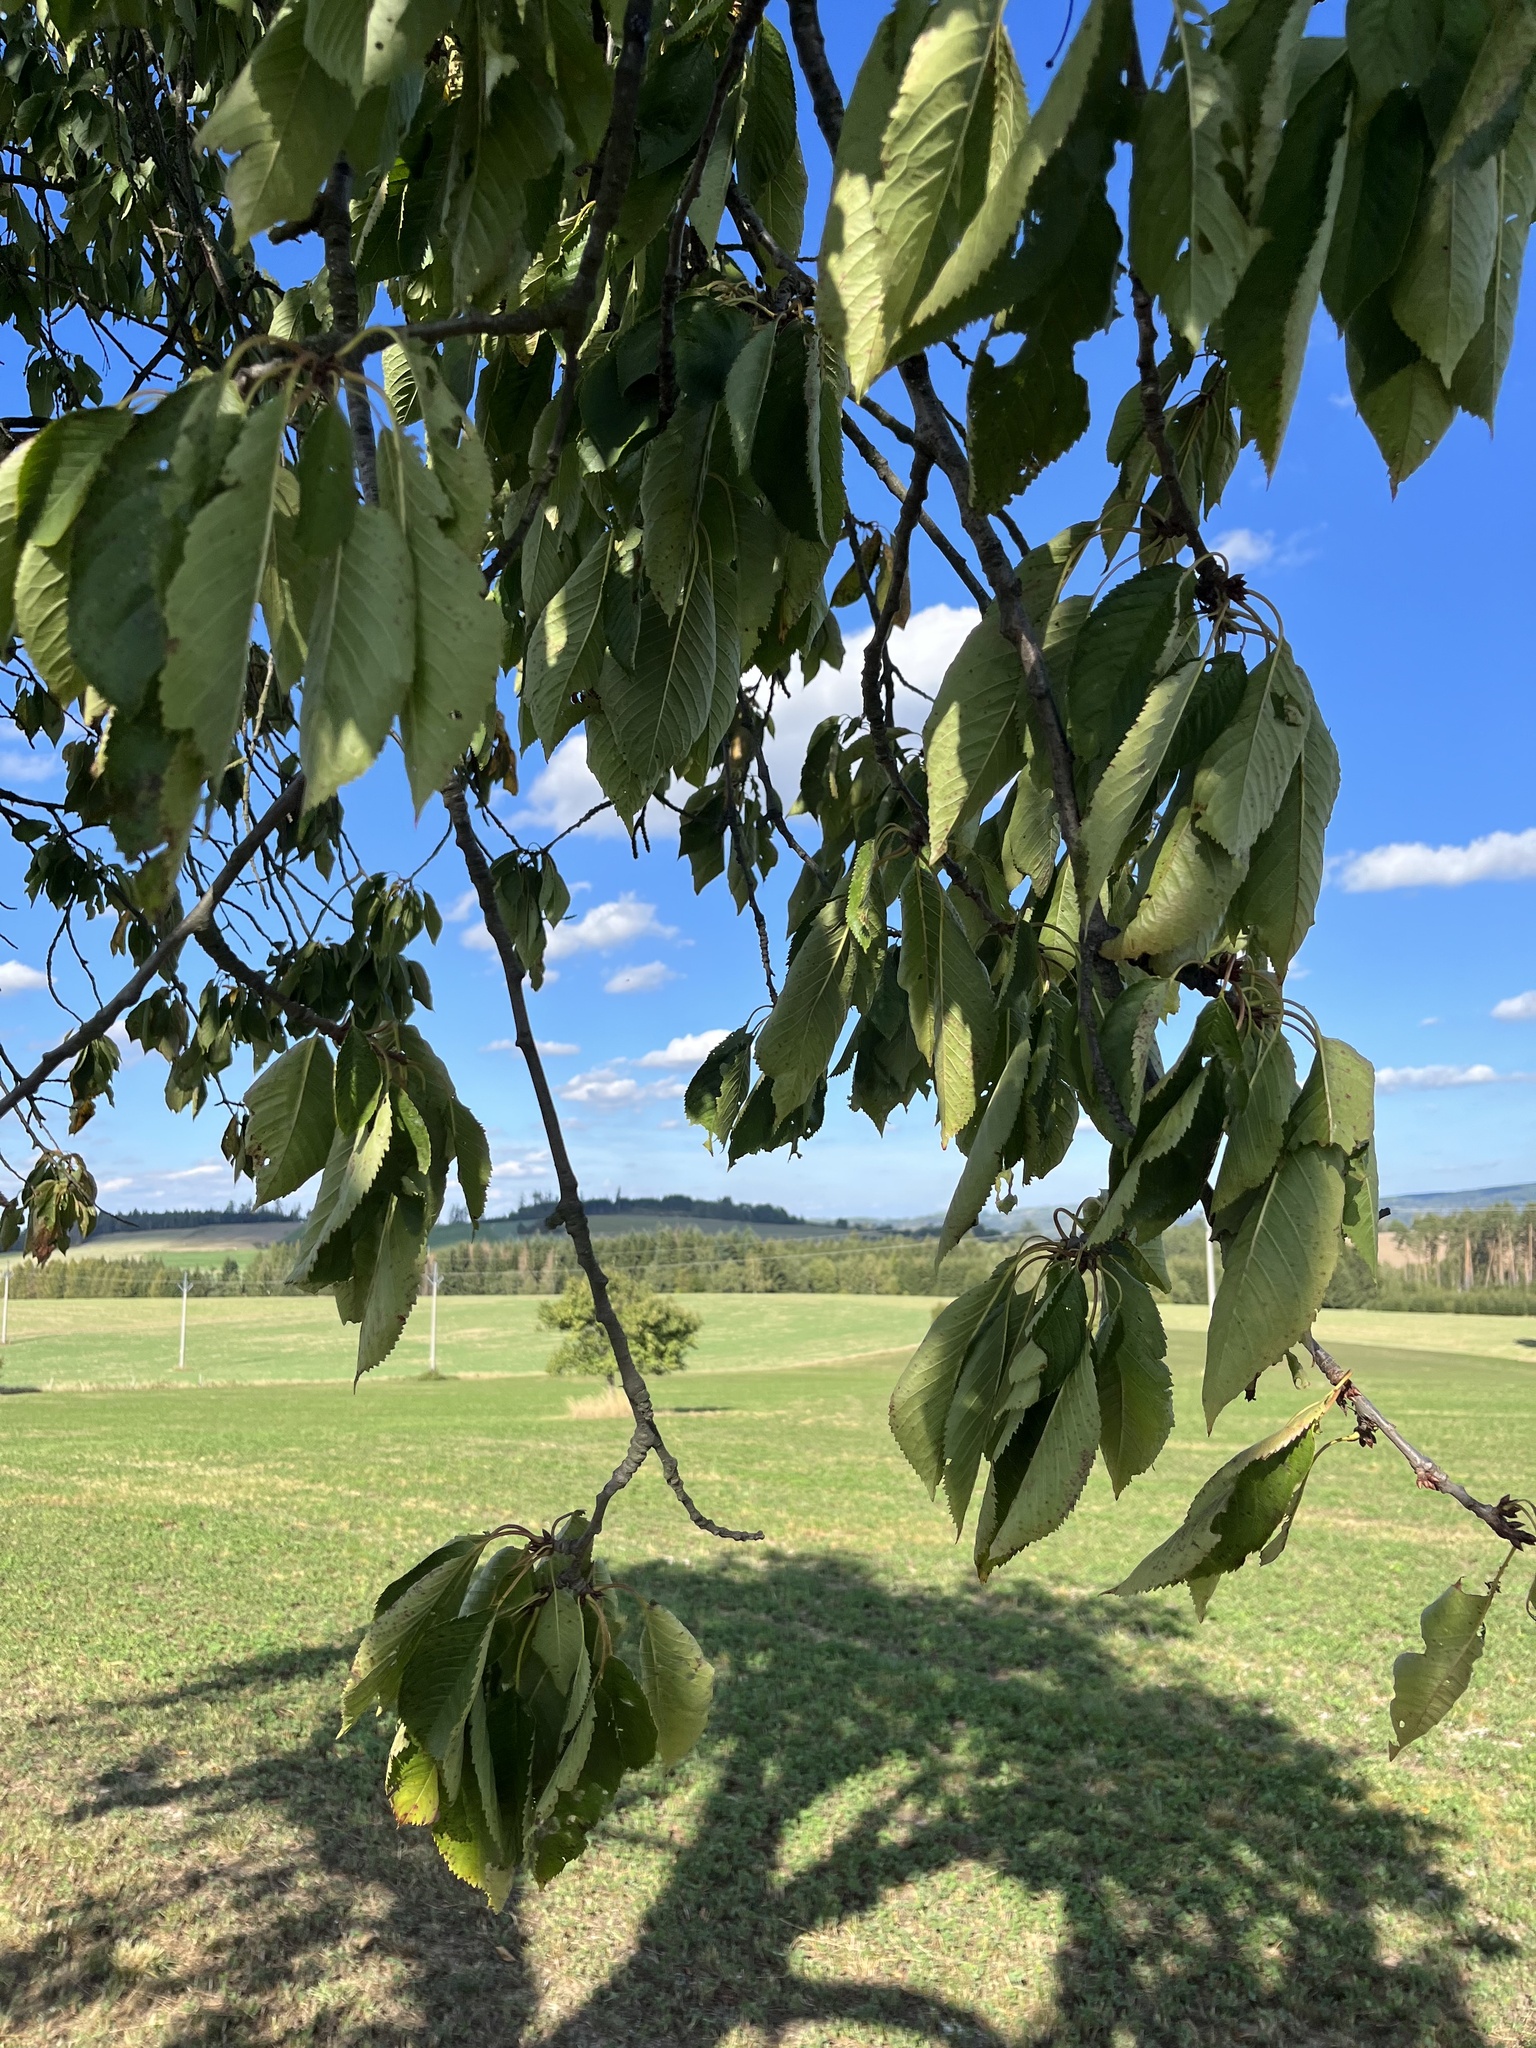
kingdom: Plantae
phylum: Tracheophyta
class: Magnoliopsida
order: Rosales
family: Rosaceae
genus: Prunus
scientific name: Prunus avium
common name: Sweet cherry
